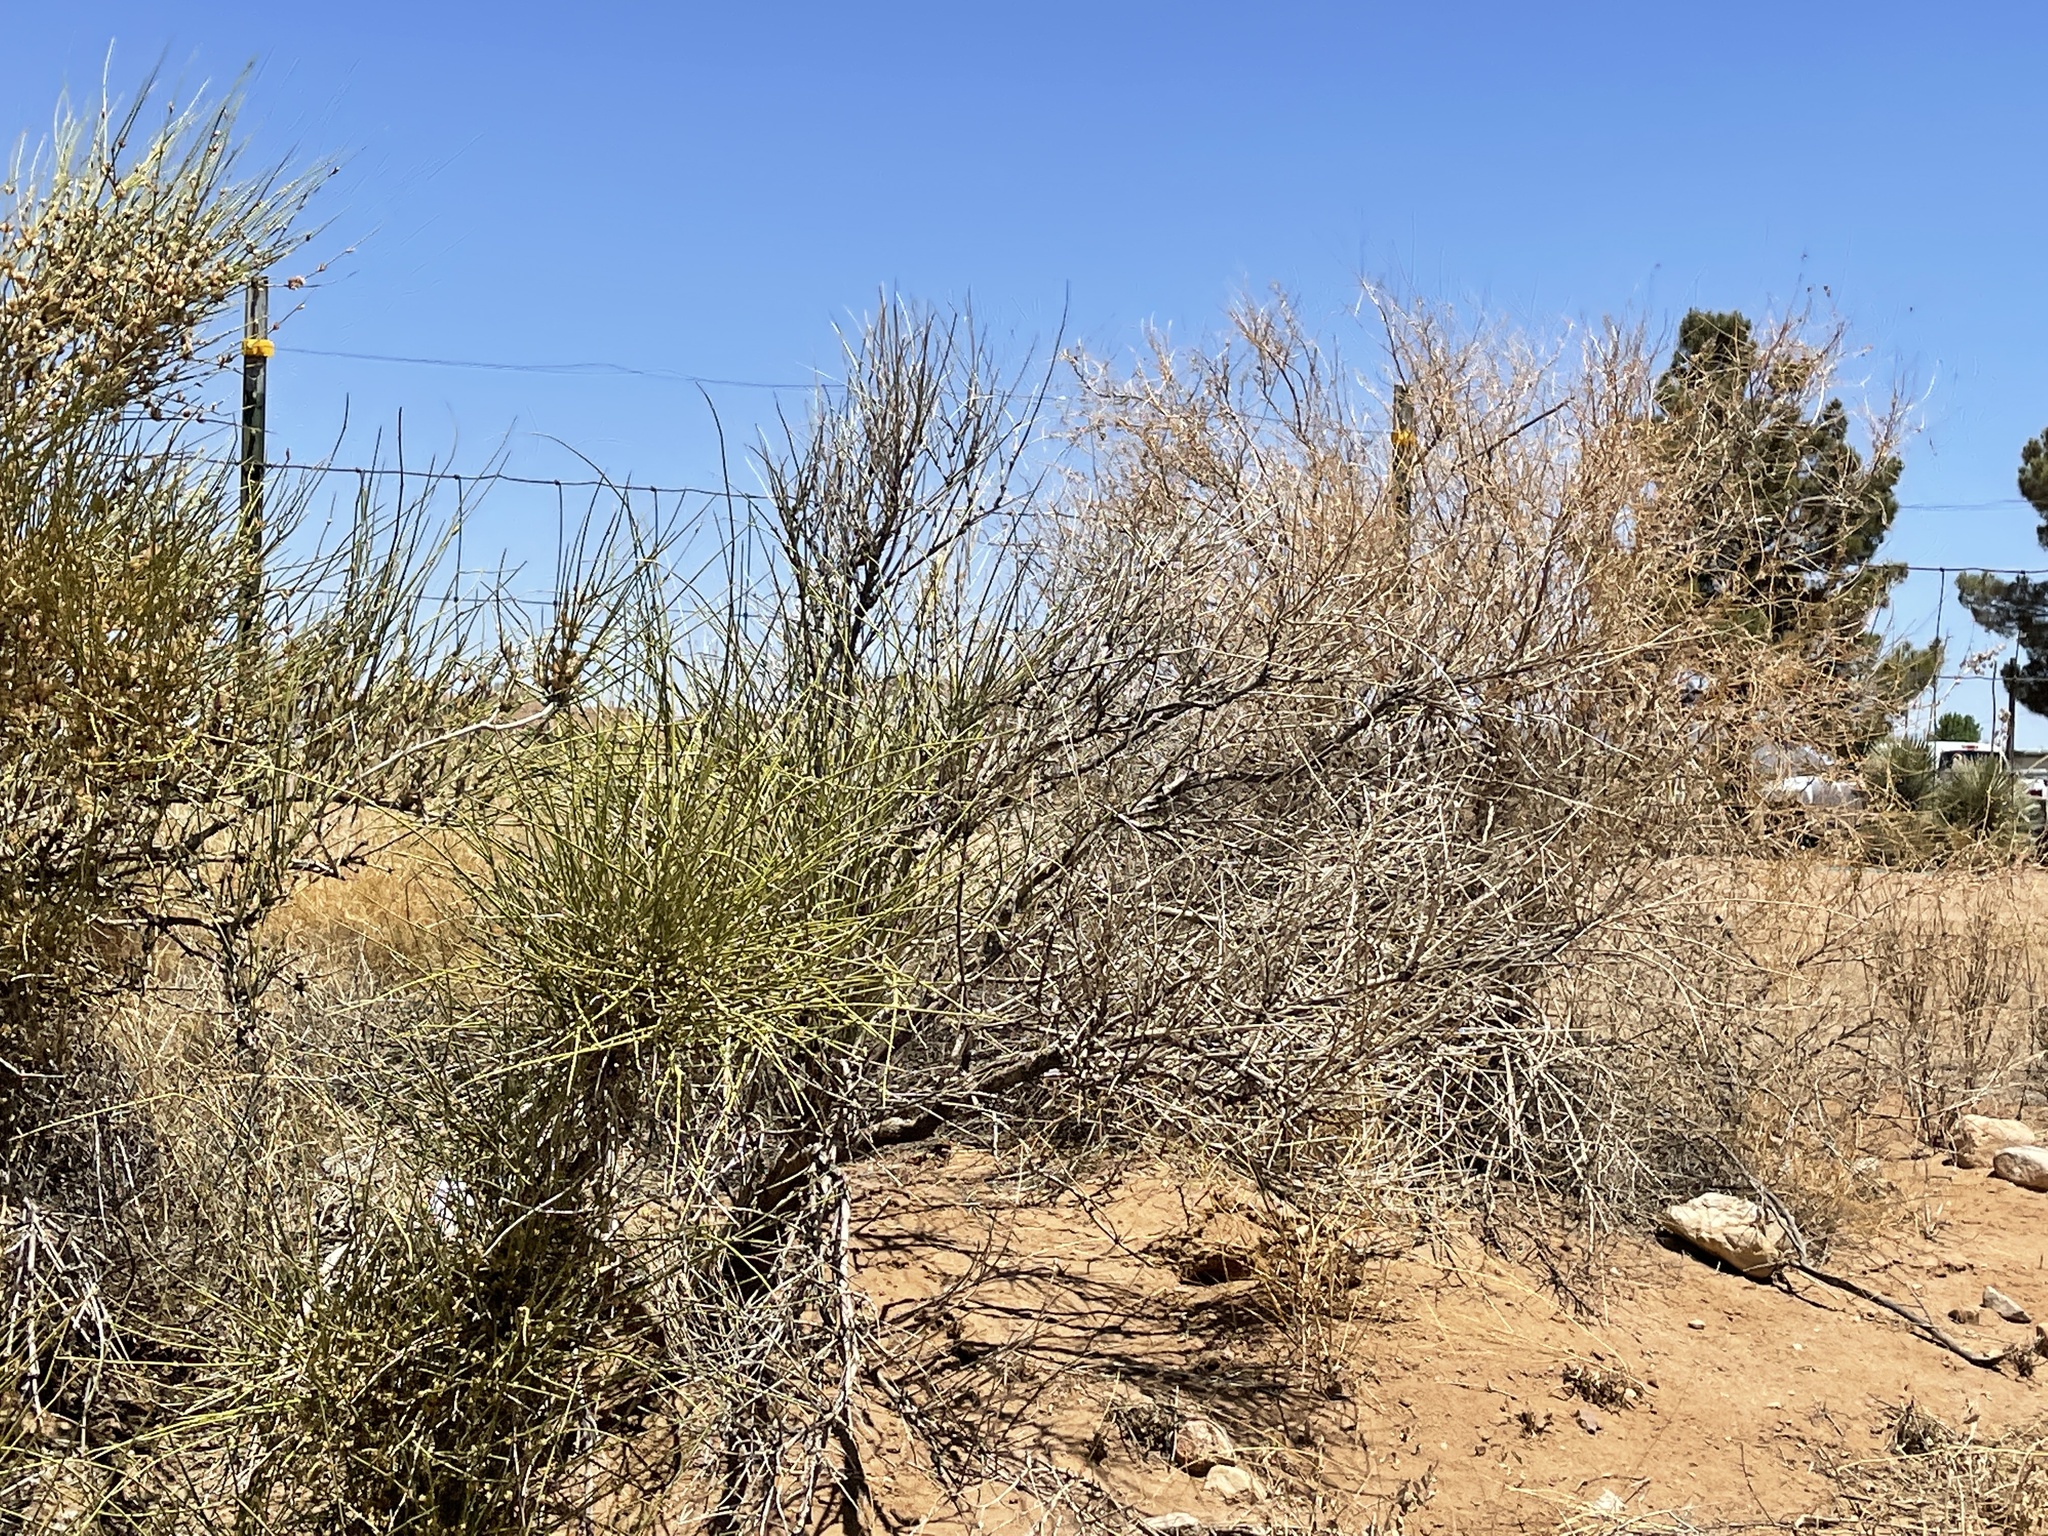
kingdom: Plantae
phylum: Tracheophyta
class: Gnetopsida
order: Ephedrales
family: Ephedraceae
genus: Ephedra
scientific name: Ephedra trifurca
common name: Mexican-tea
